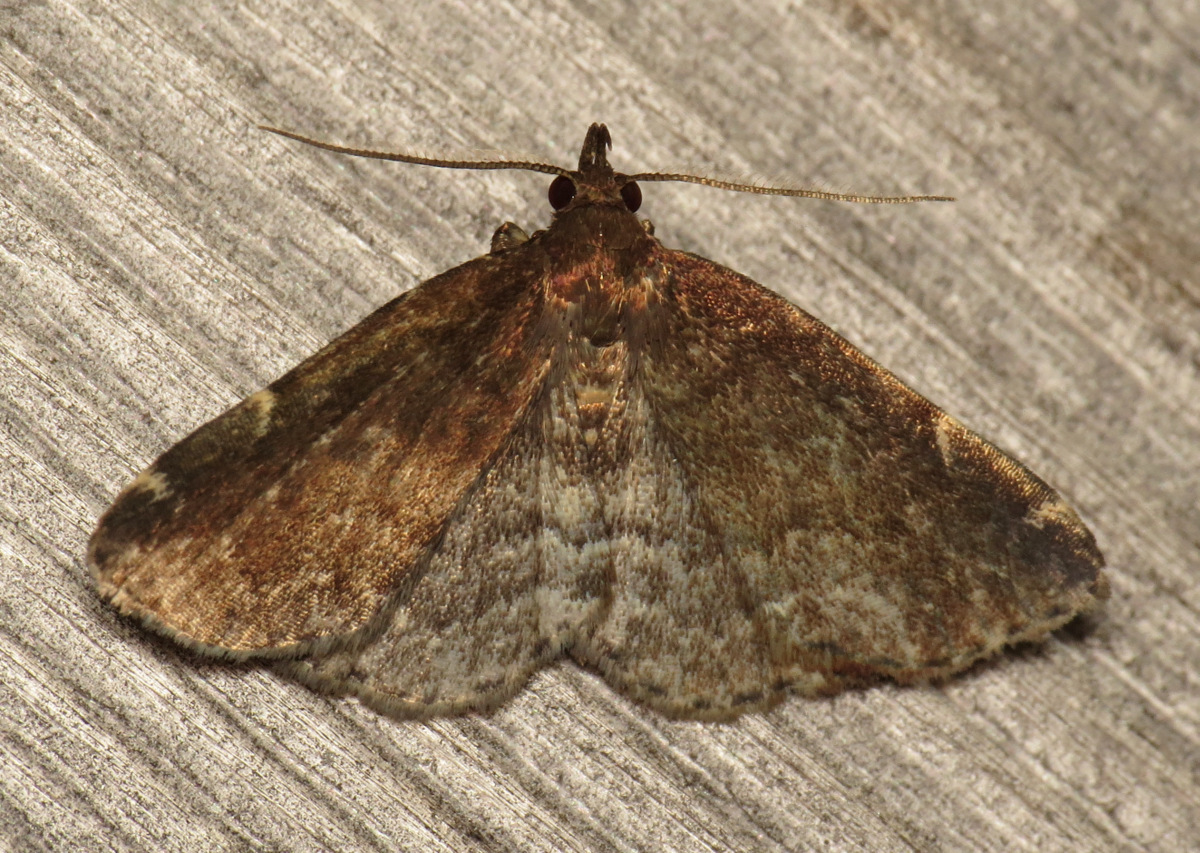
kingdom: Animalia
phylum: Arthropoda
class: Insecta
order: Lepidoptera
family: Erebidae
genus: Idia
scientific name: Idia forbesii
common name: Forbes' idia moth
